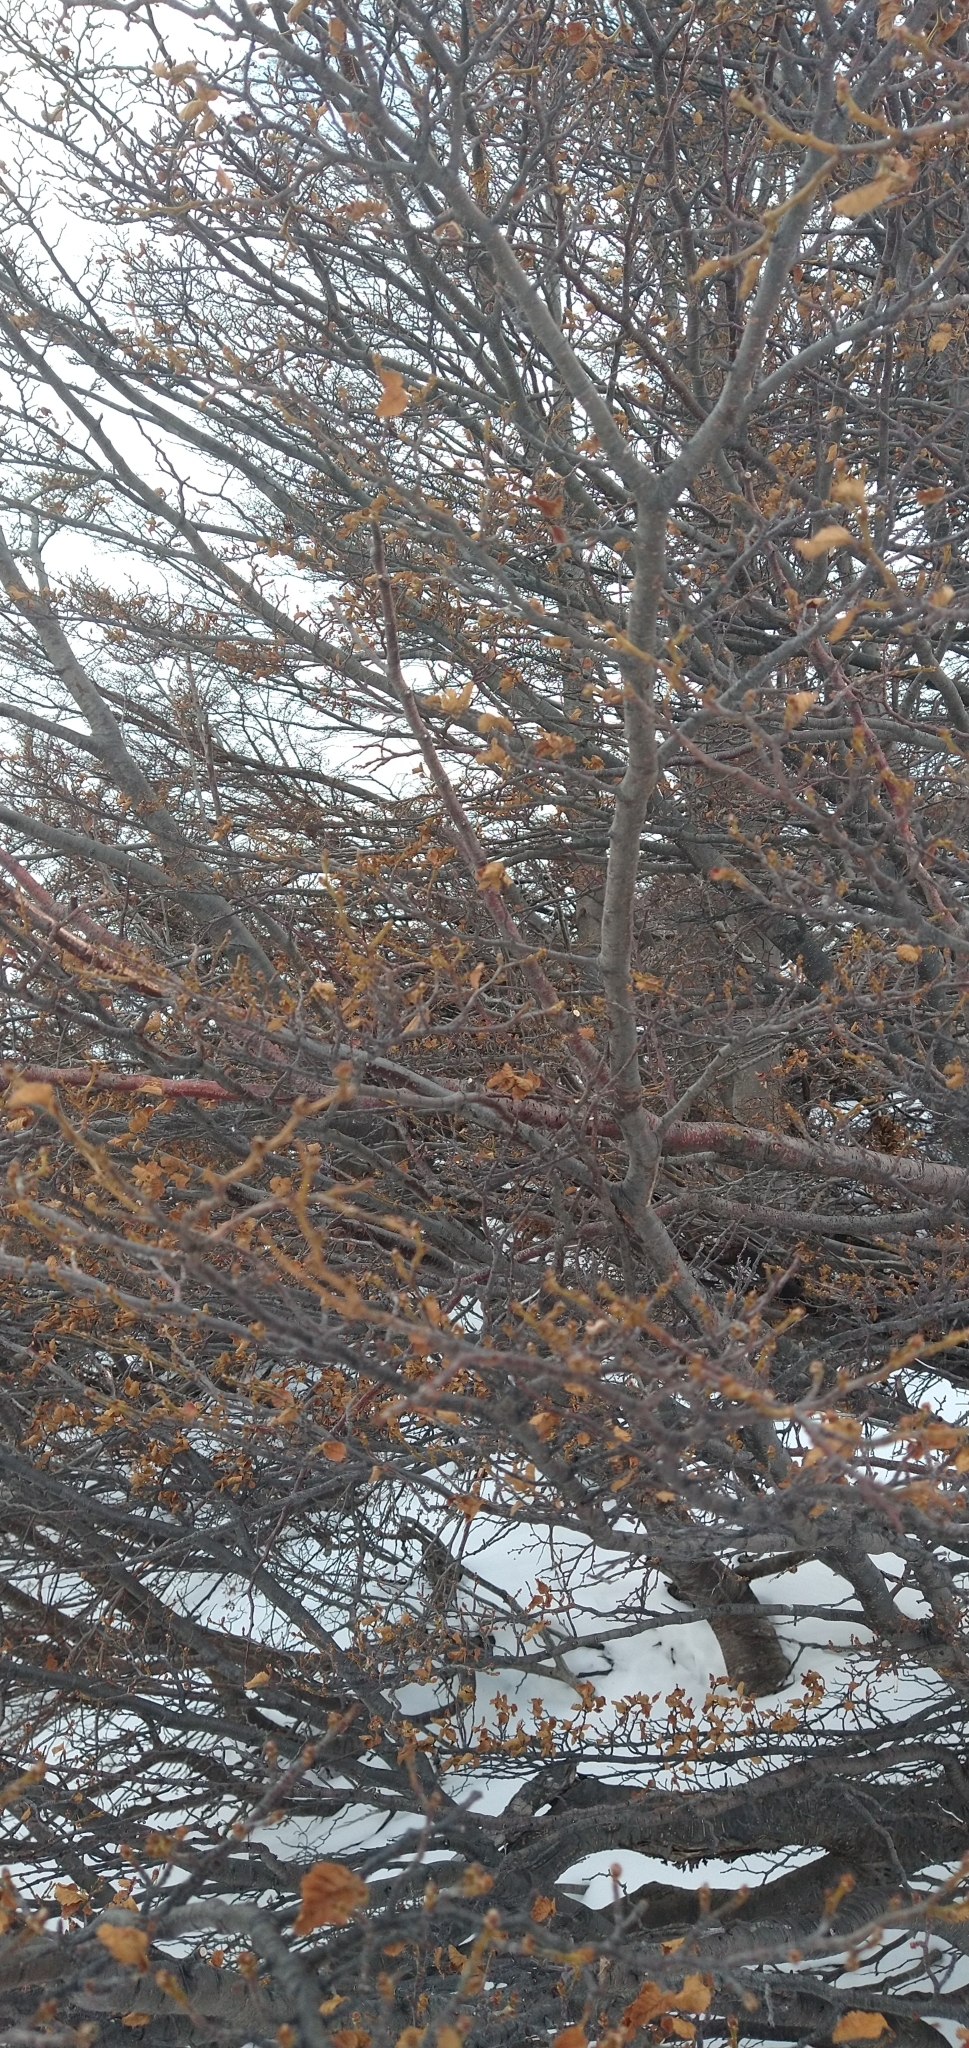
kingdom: Plantae
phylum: Tracheophyta
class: Magnoliopsida
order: Fagales
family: Nothofagaceae
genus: Nothofagus
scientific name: Nothofagus pumilio
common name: Lenga beech
